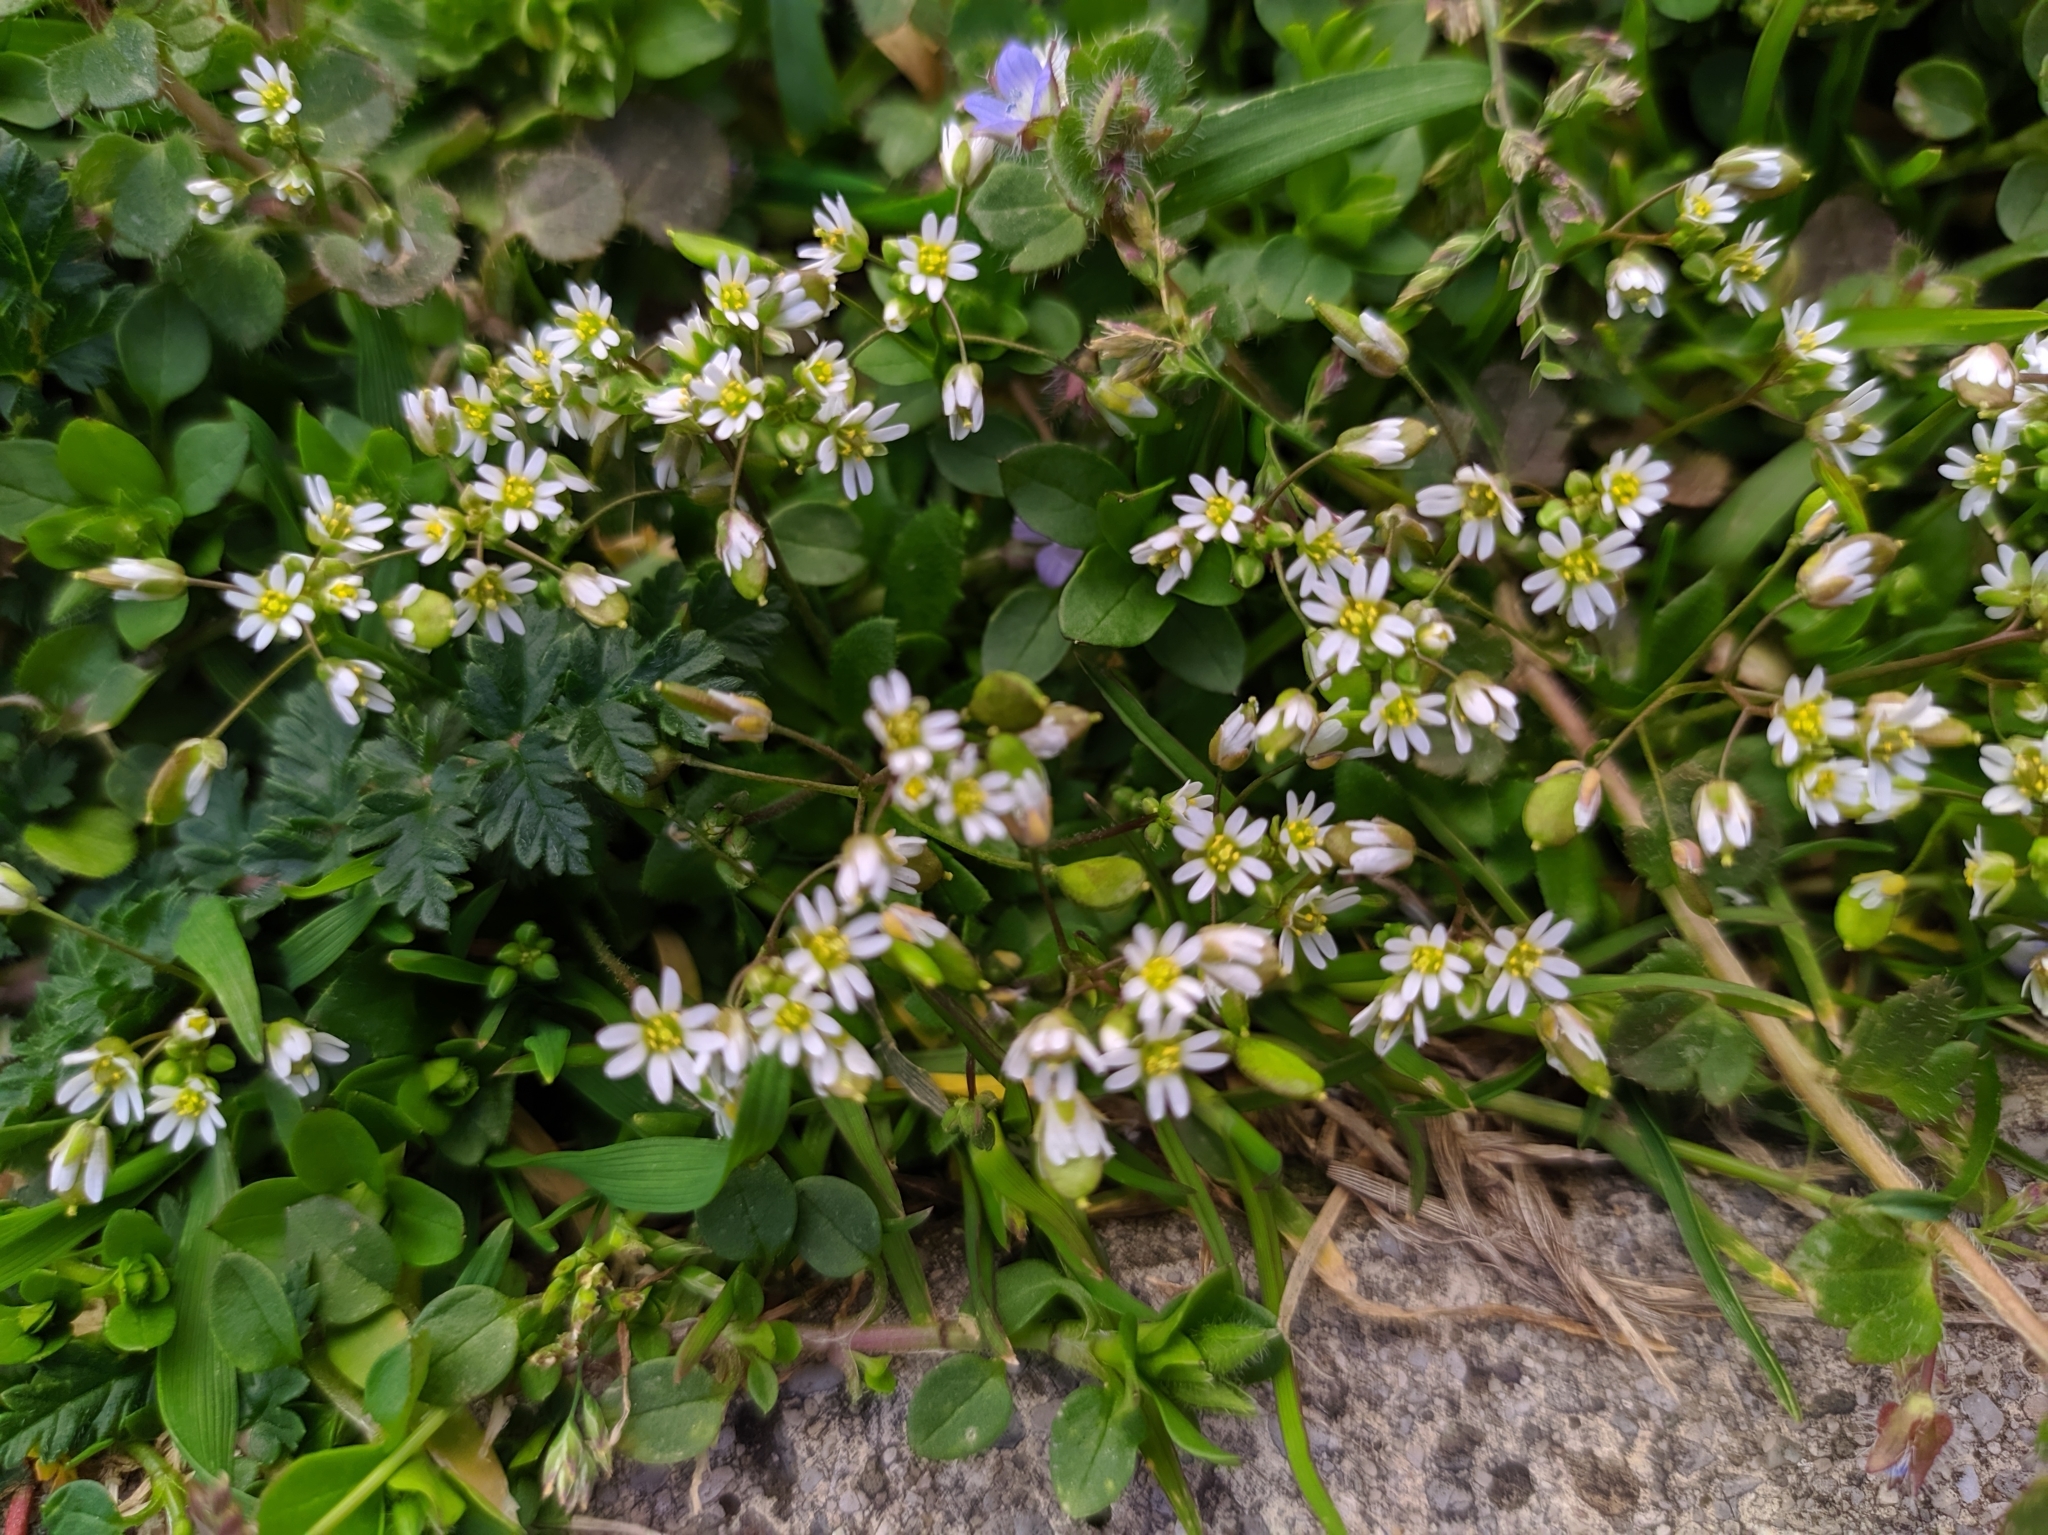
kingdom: Plantae
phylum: Tracheophyta
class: Magnoliopsida
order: Brassicales
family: Brassicaceae
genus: Draba
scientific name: Draba verna
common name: Spring draba
